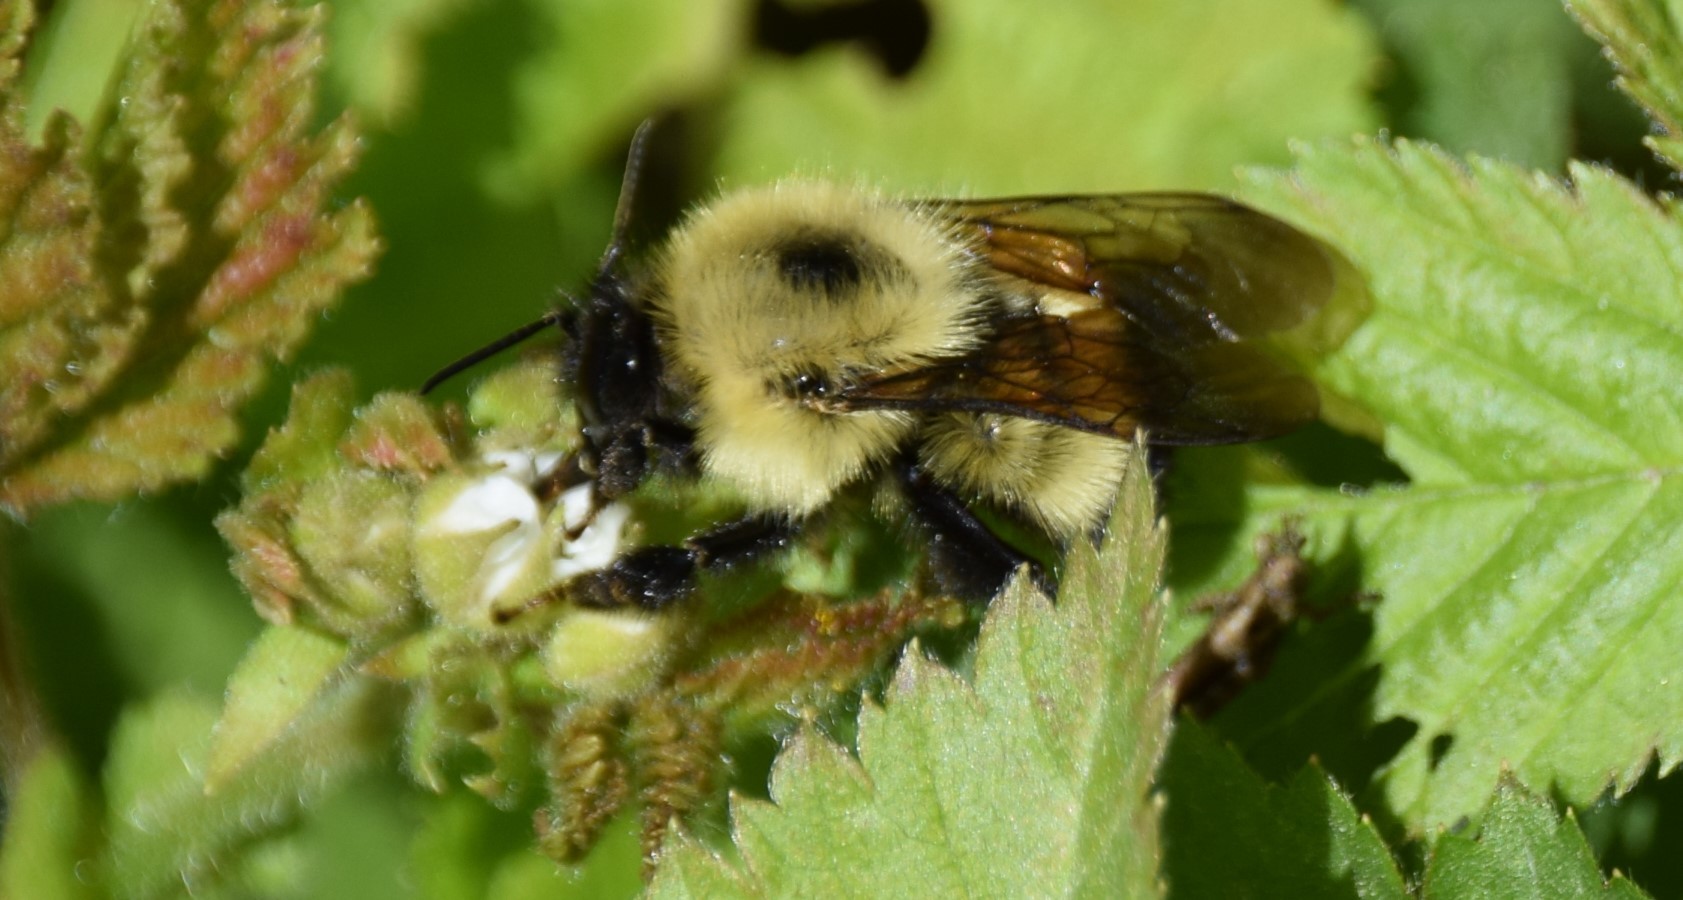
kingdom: Animalia
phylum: Arthropoda
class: Insecta
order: Hymenoptera
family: Apidae
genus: Pyrobombus
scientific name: Pyrobombus
